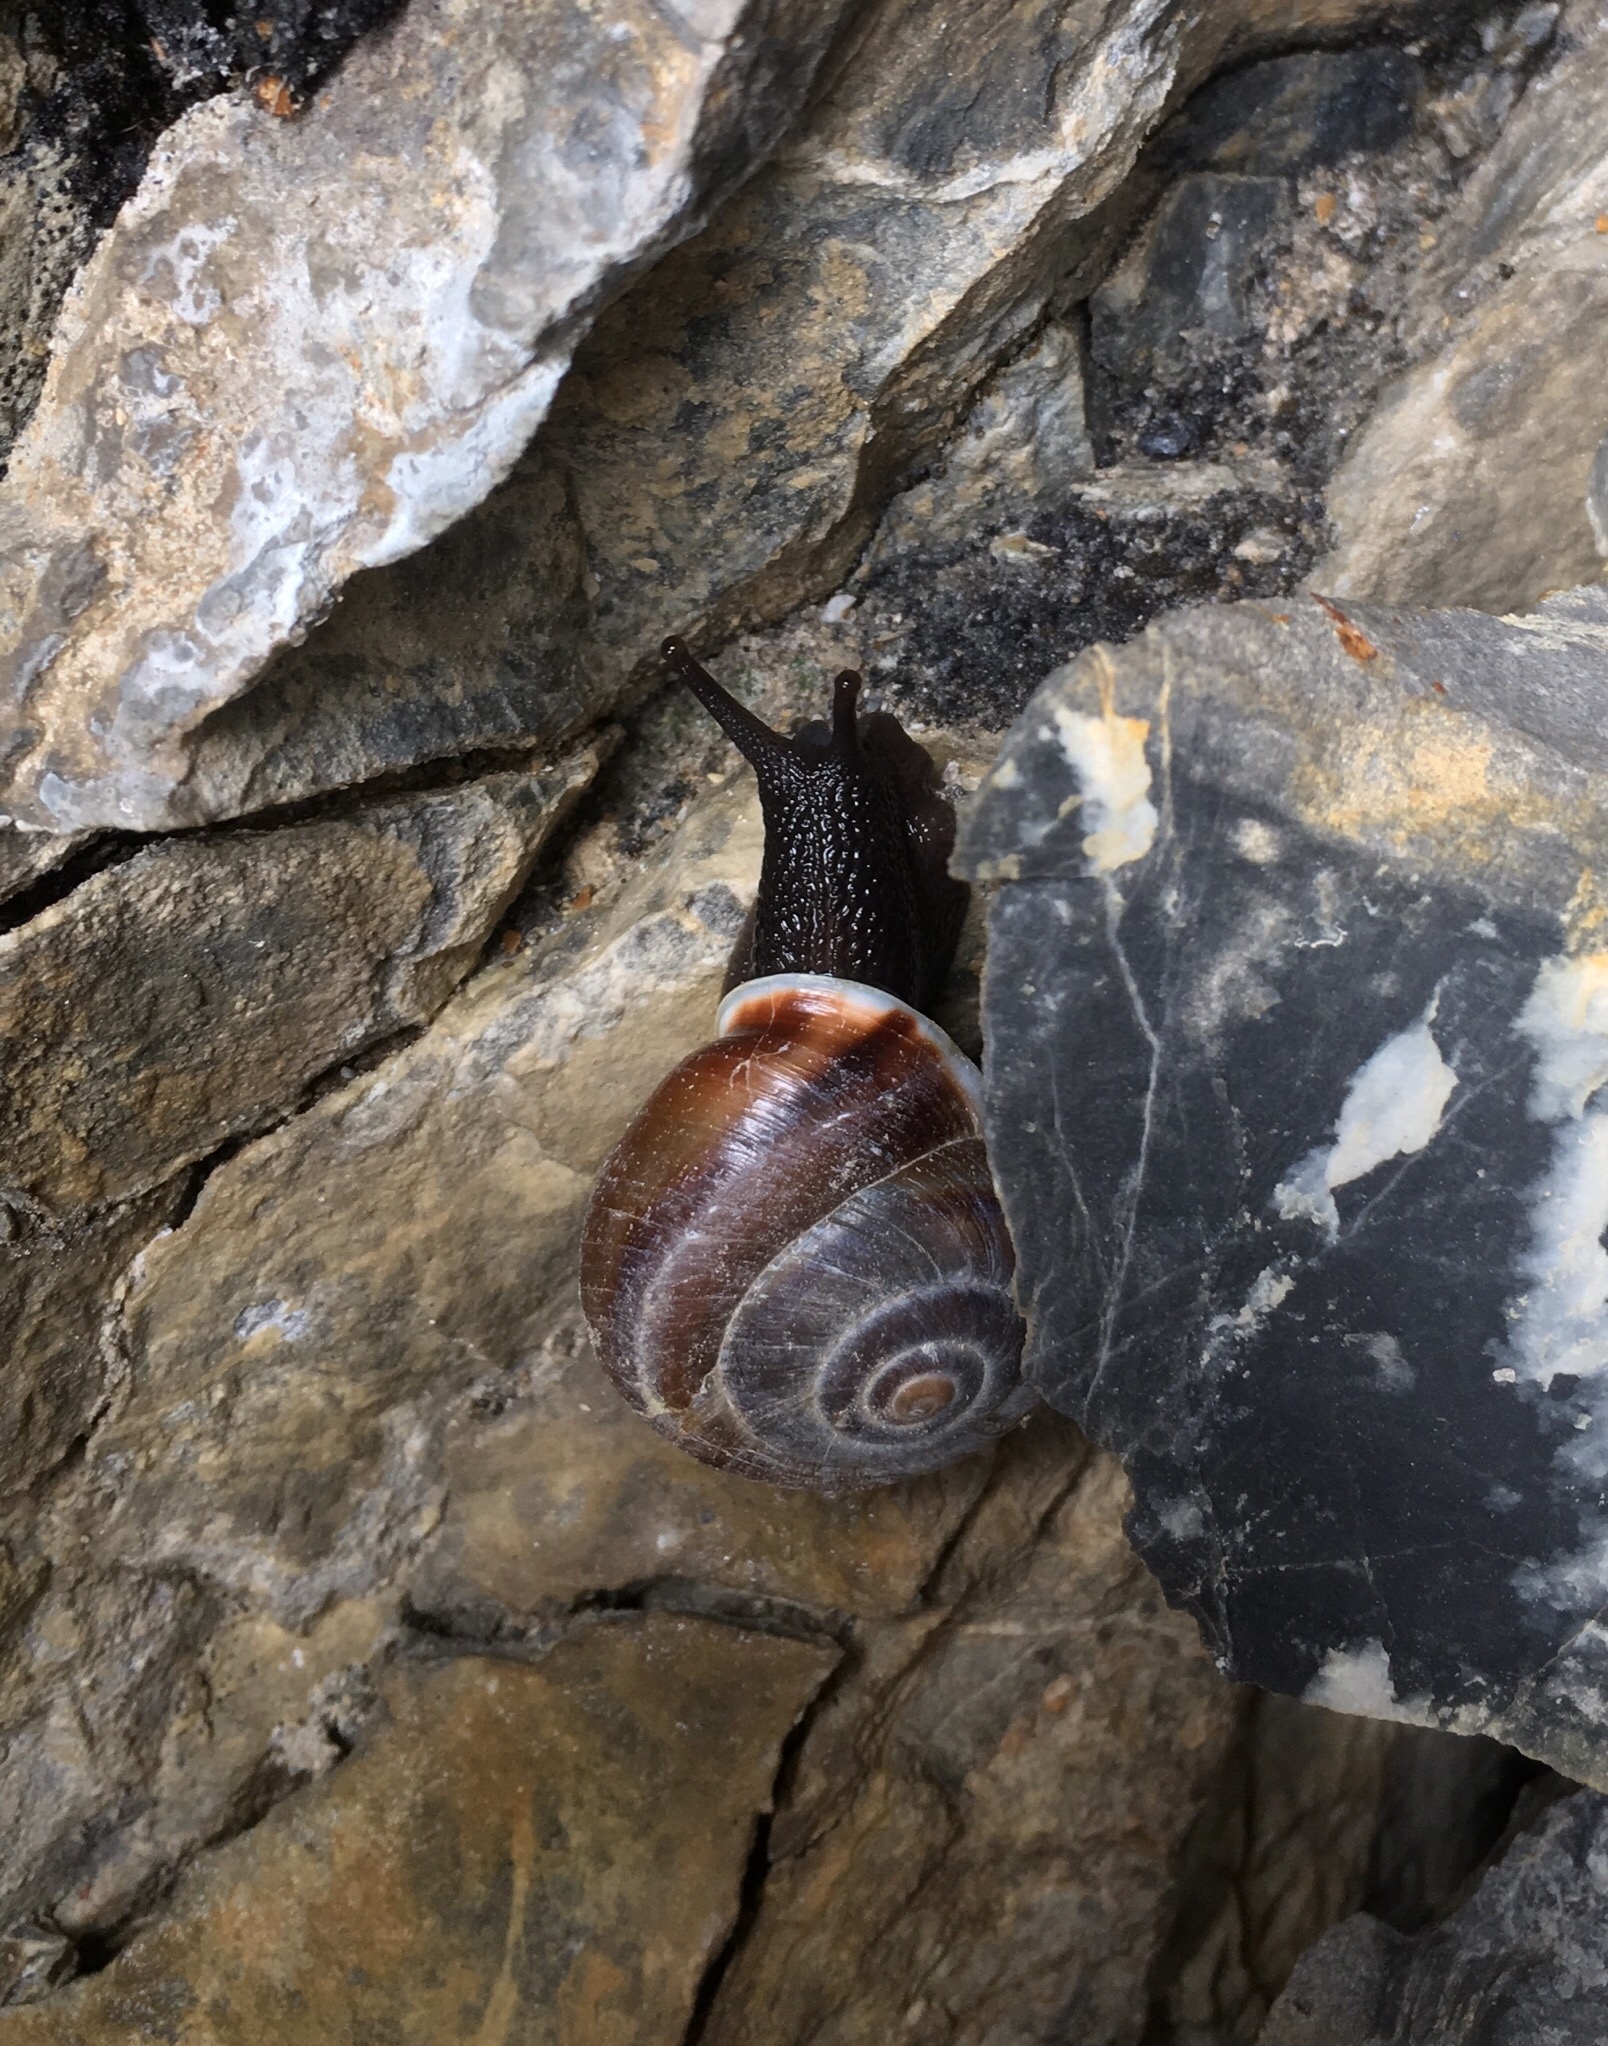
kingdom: Animalia
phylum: Mollusca
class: Gastropoda
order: Stylommatophora
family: Helicidae
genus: Chilostoma
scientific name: Chilostoma achates
